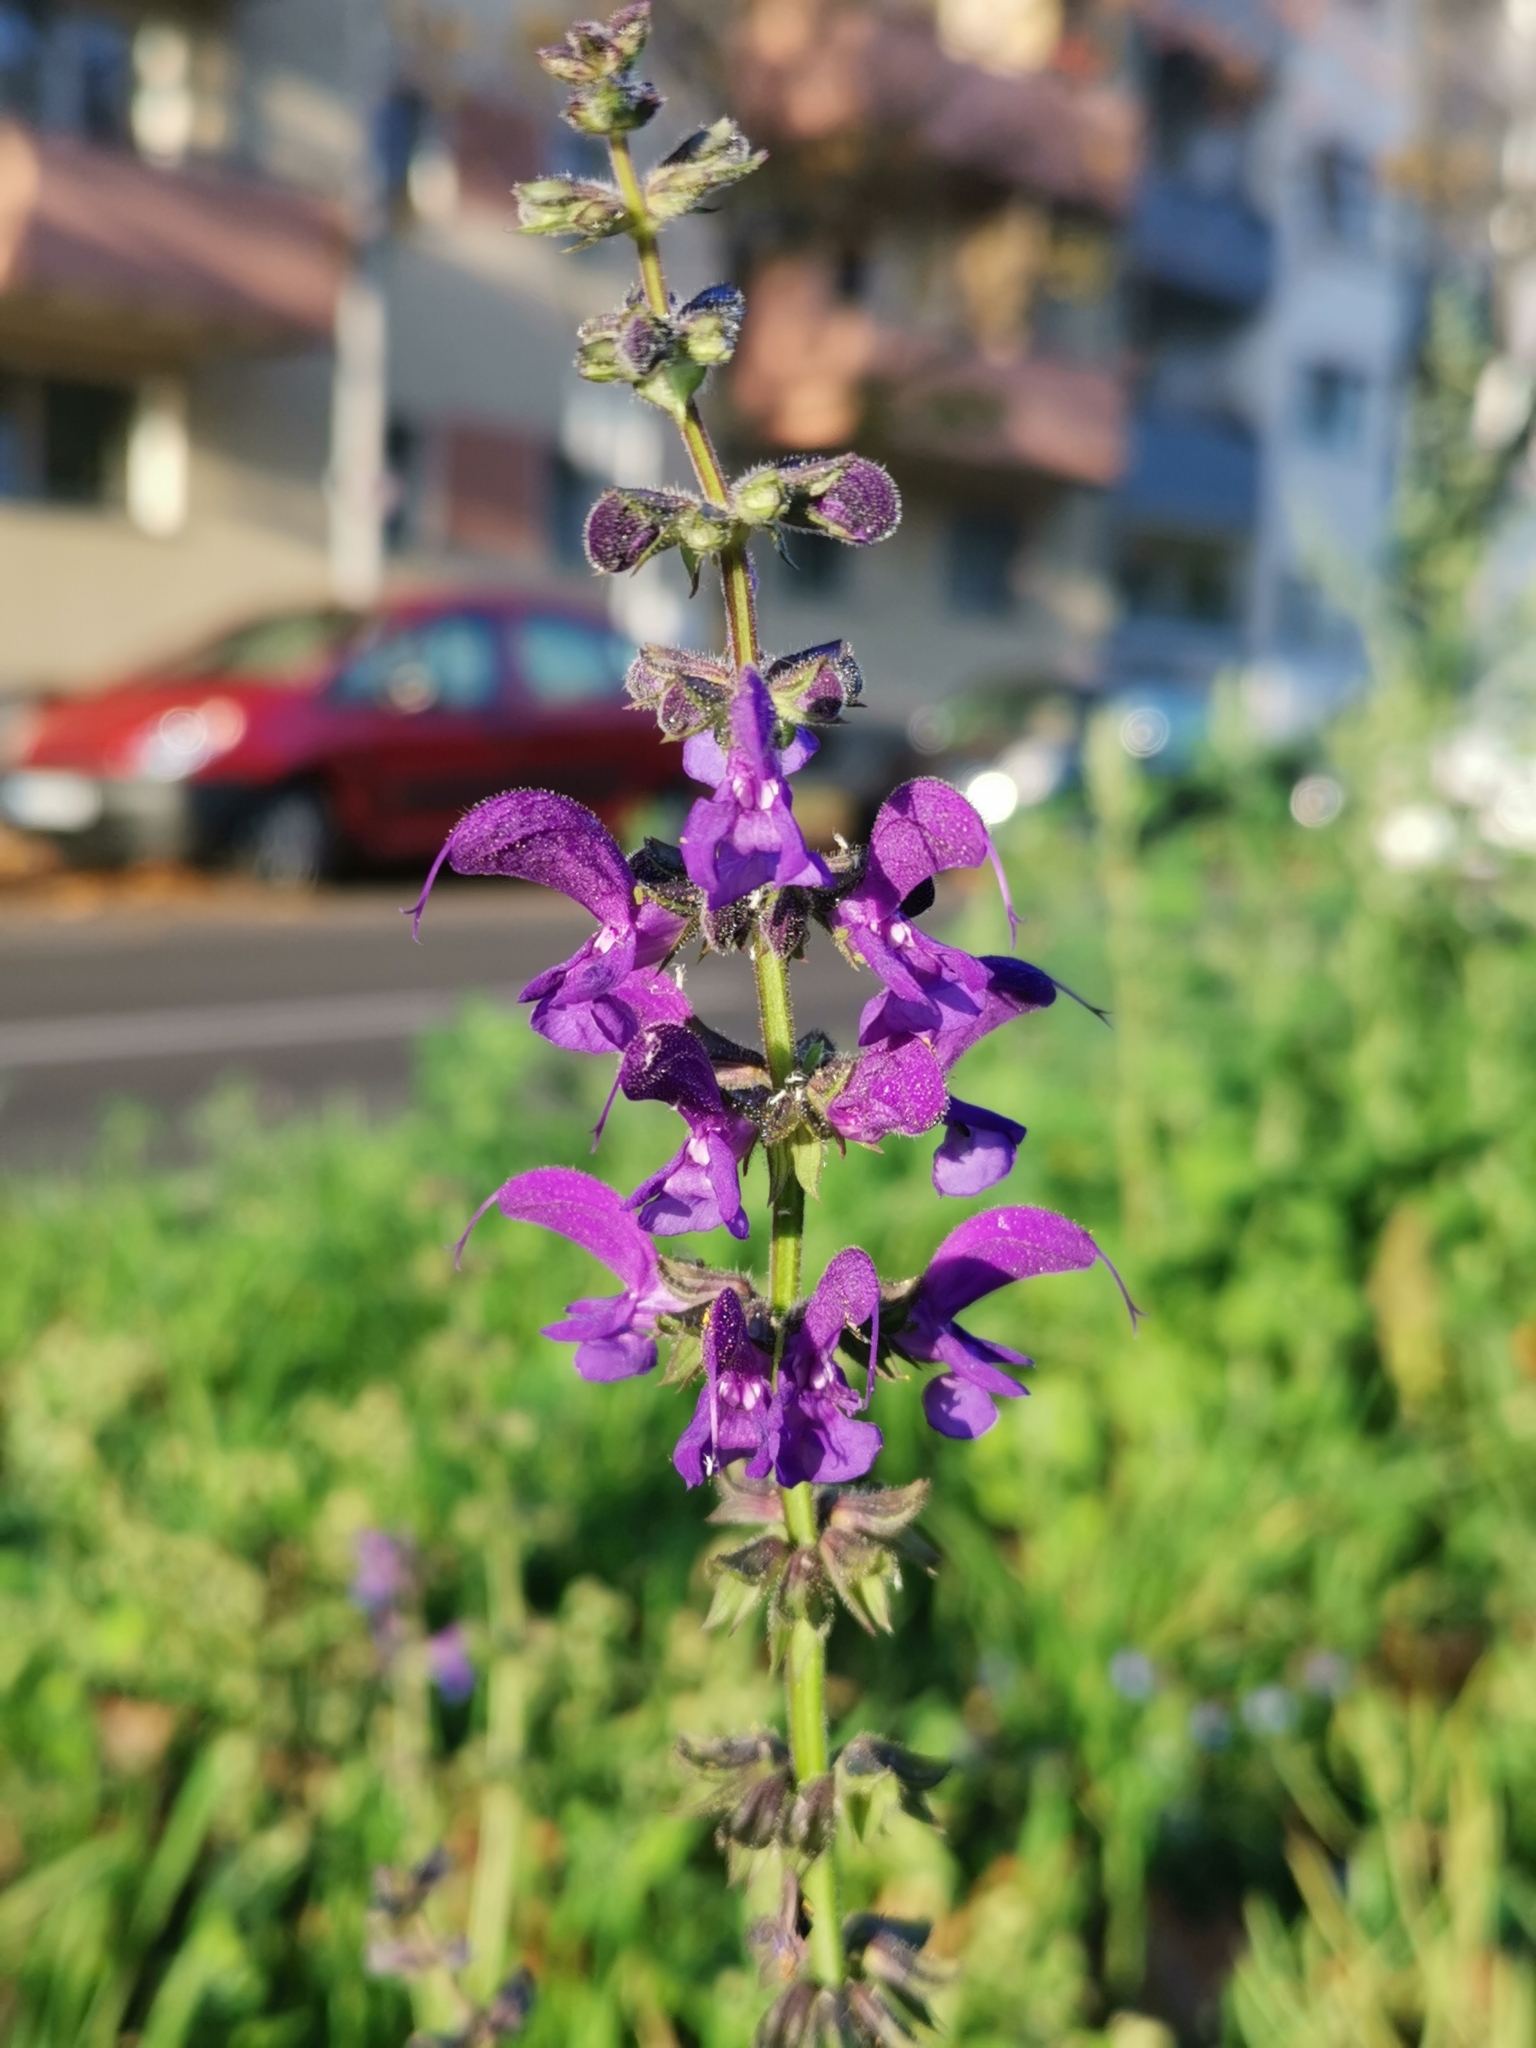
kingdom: Plantae
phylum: Tracheophyta
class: Magnoliopsida
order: Lamiales
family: Lamiaceae
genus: Salvia
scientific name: Salvia pratensis
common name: Meadow sage
